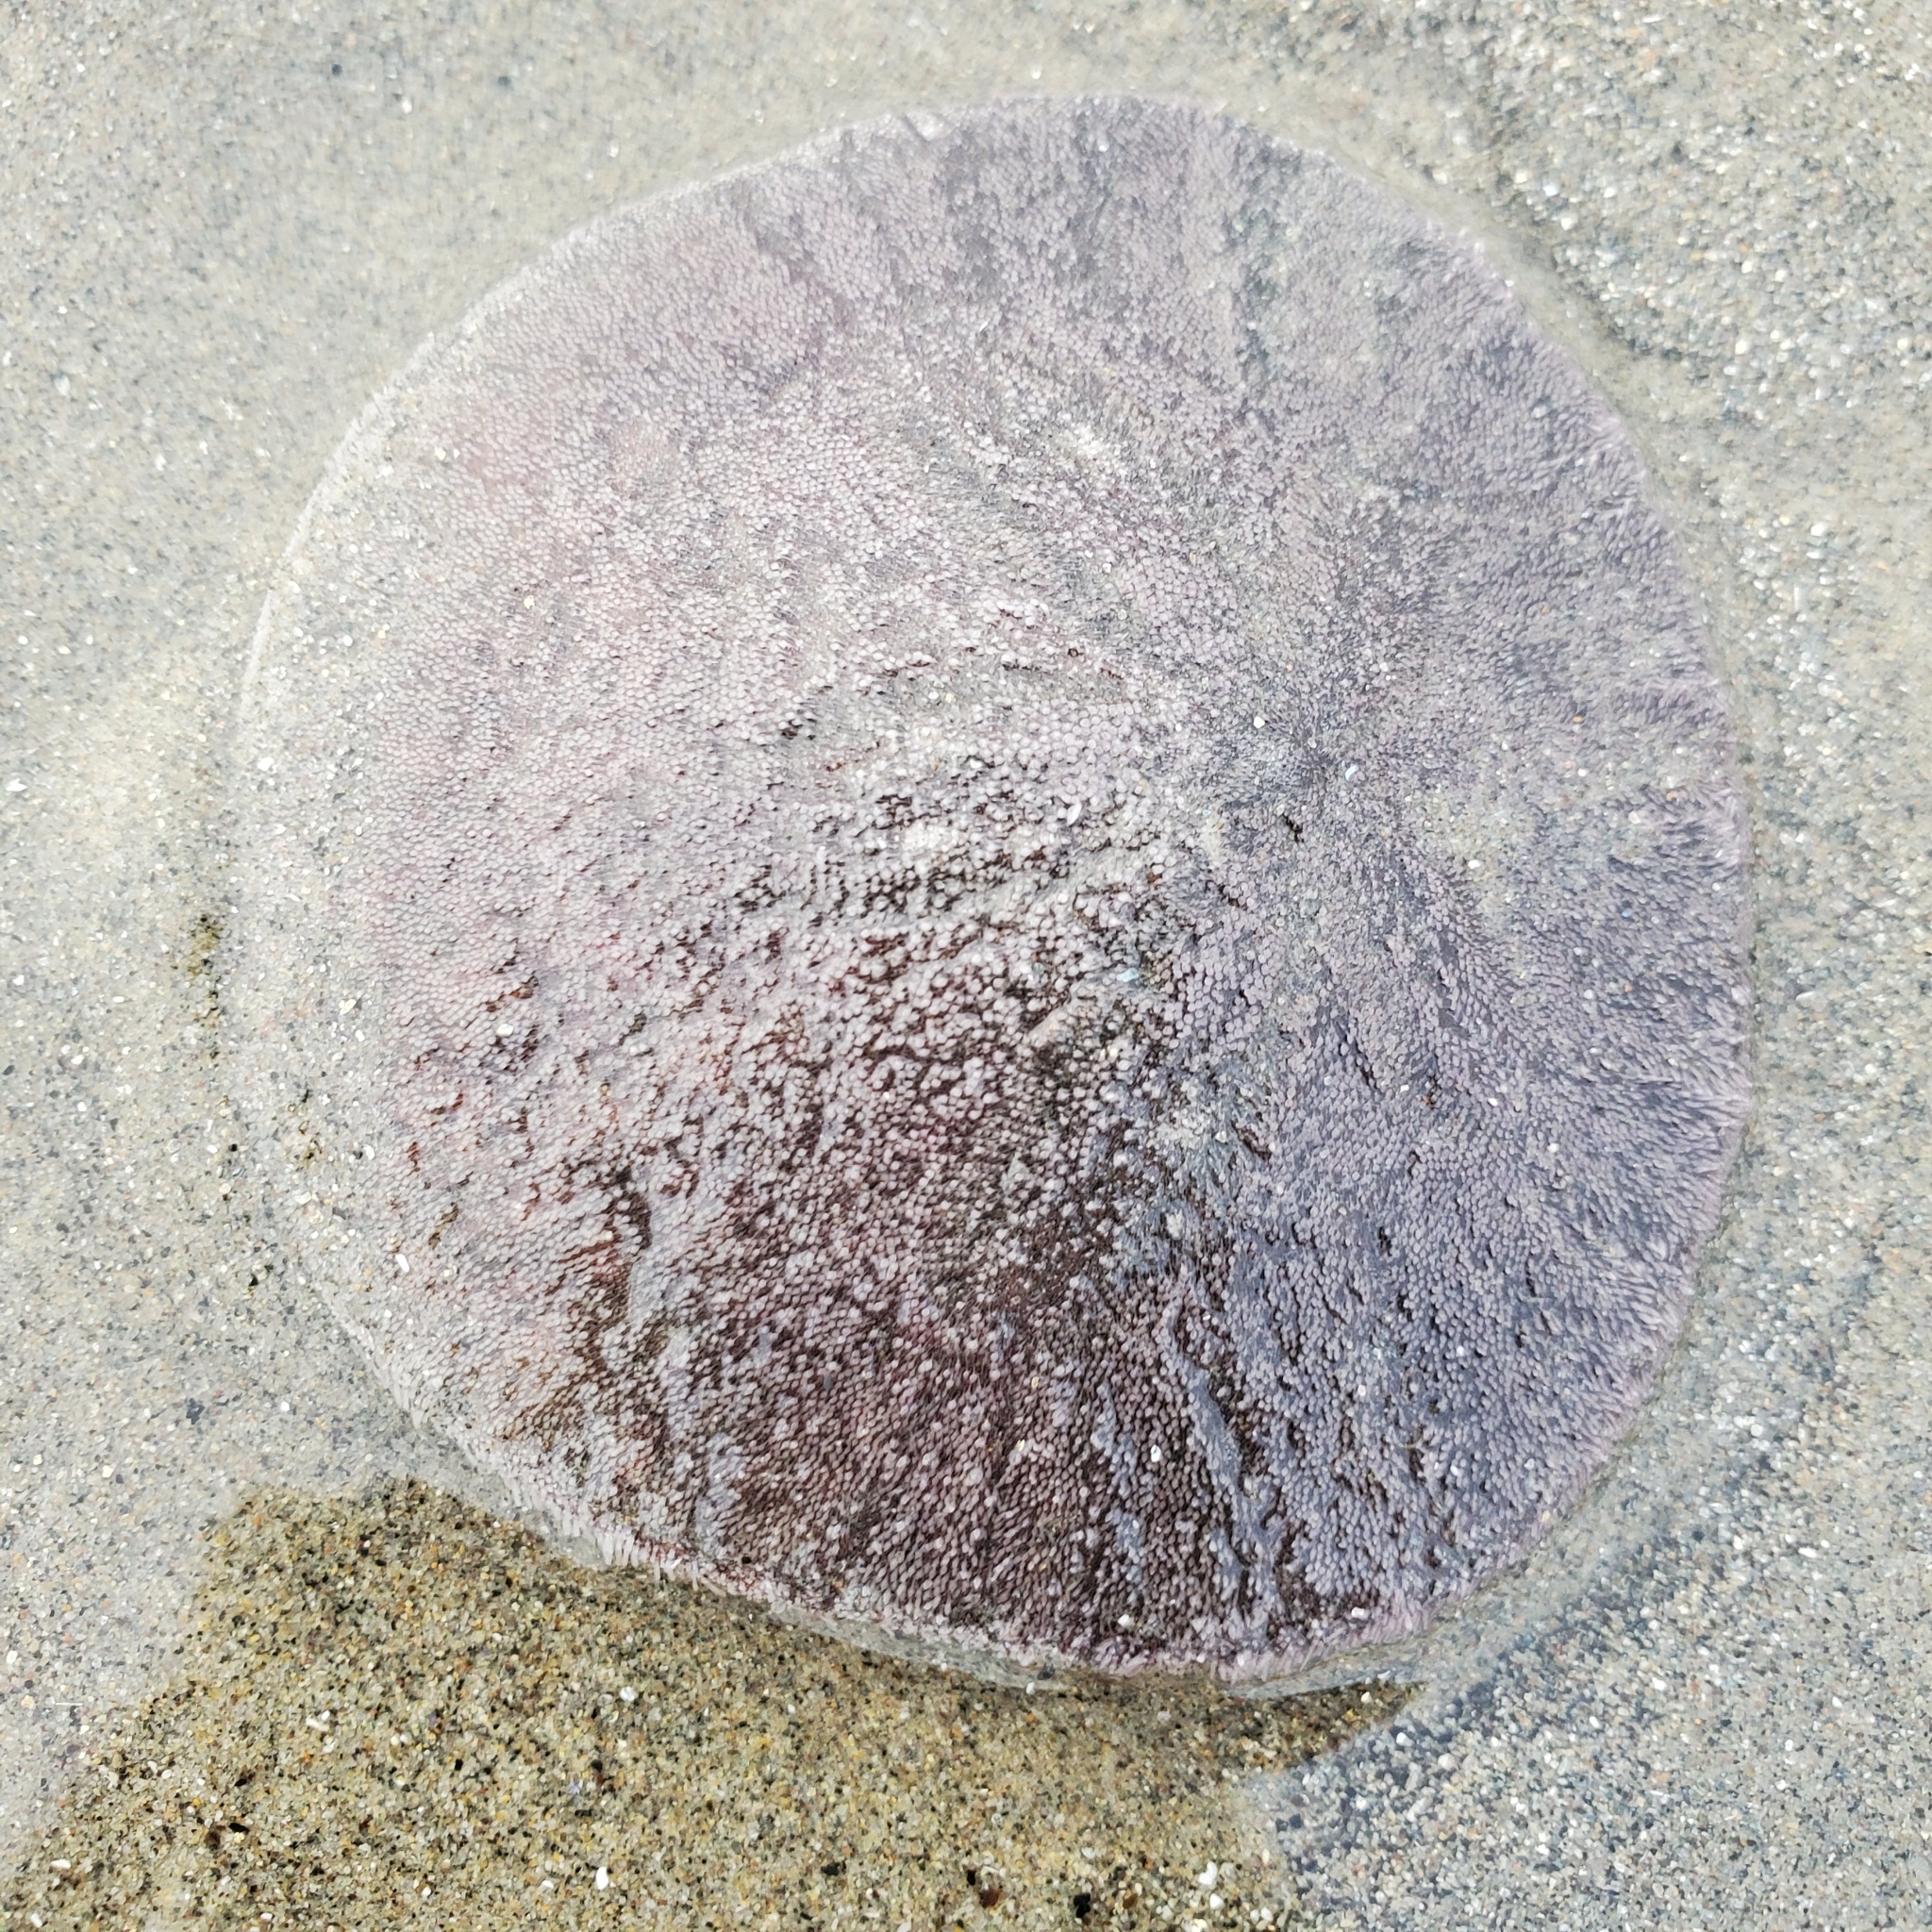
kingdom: Animalia
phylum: Echinodermata
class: Echinoidea
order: Echinolampadacea
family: Dendrasteridae
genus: Dendraster
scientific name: Dendraster excentricus
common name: Eccentric sand dollar sea urchin
